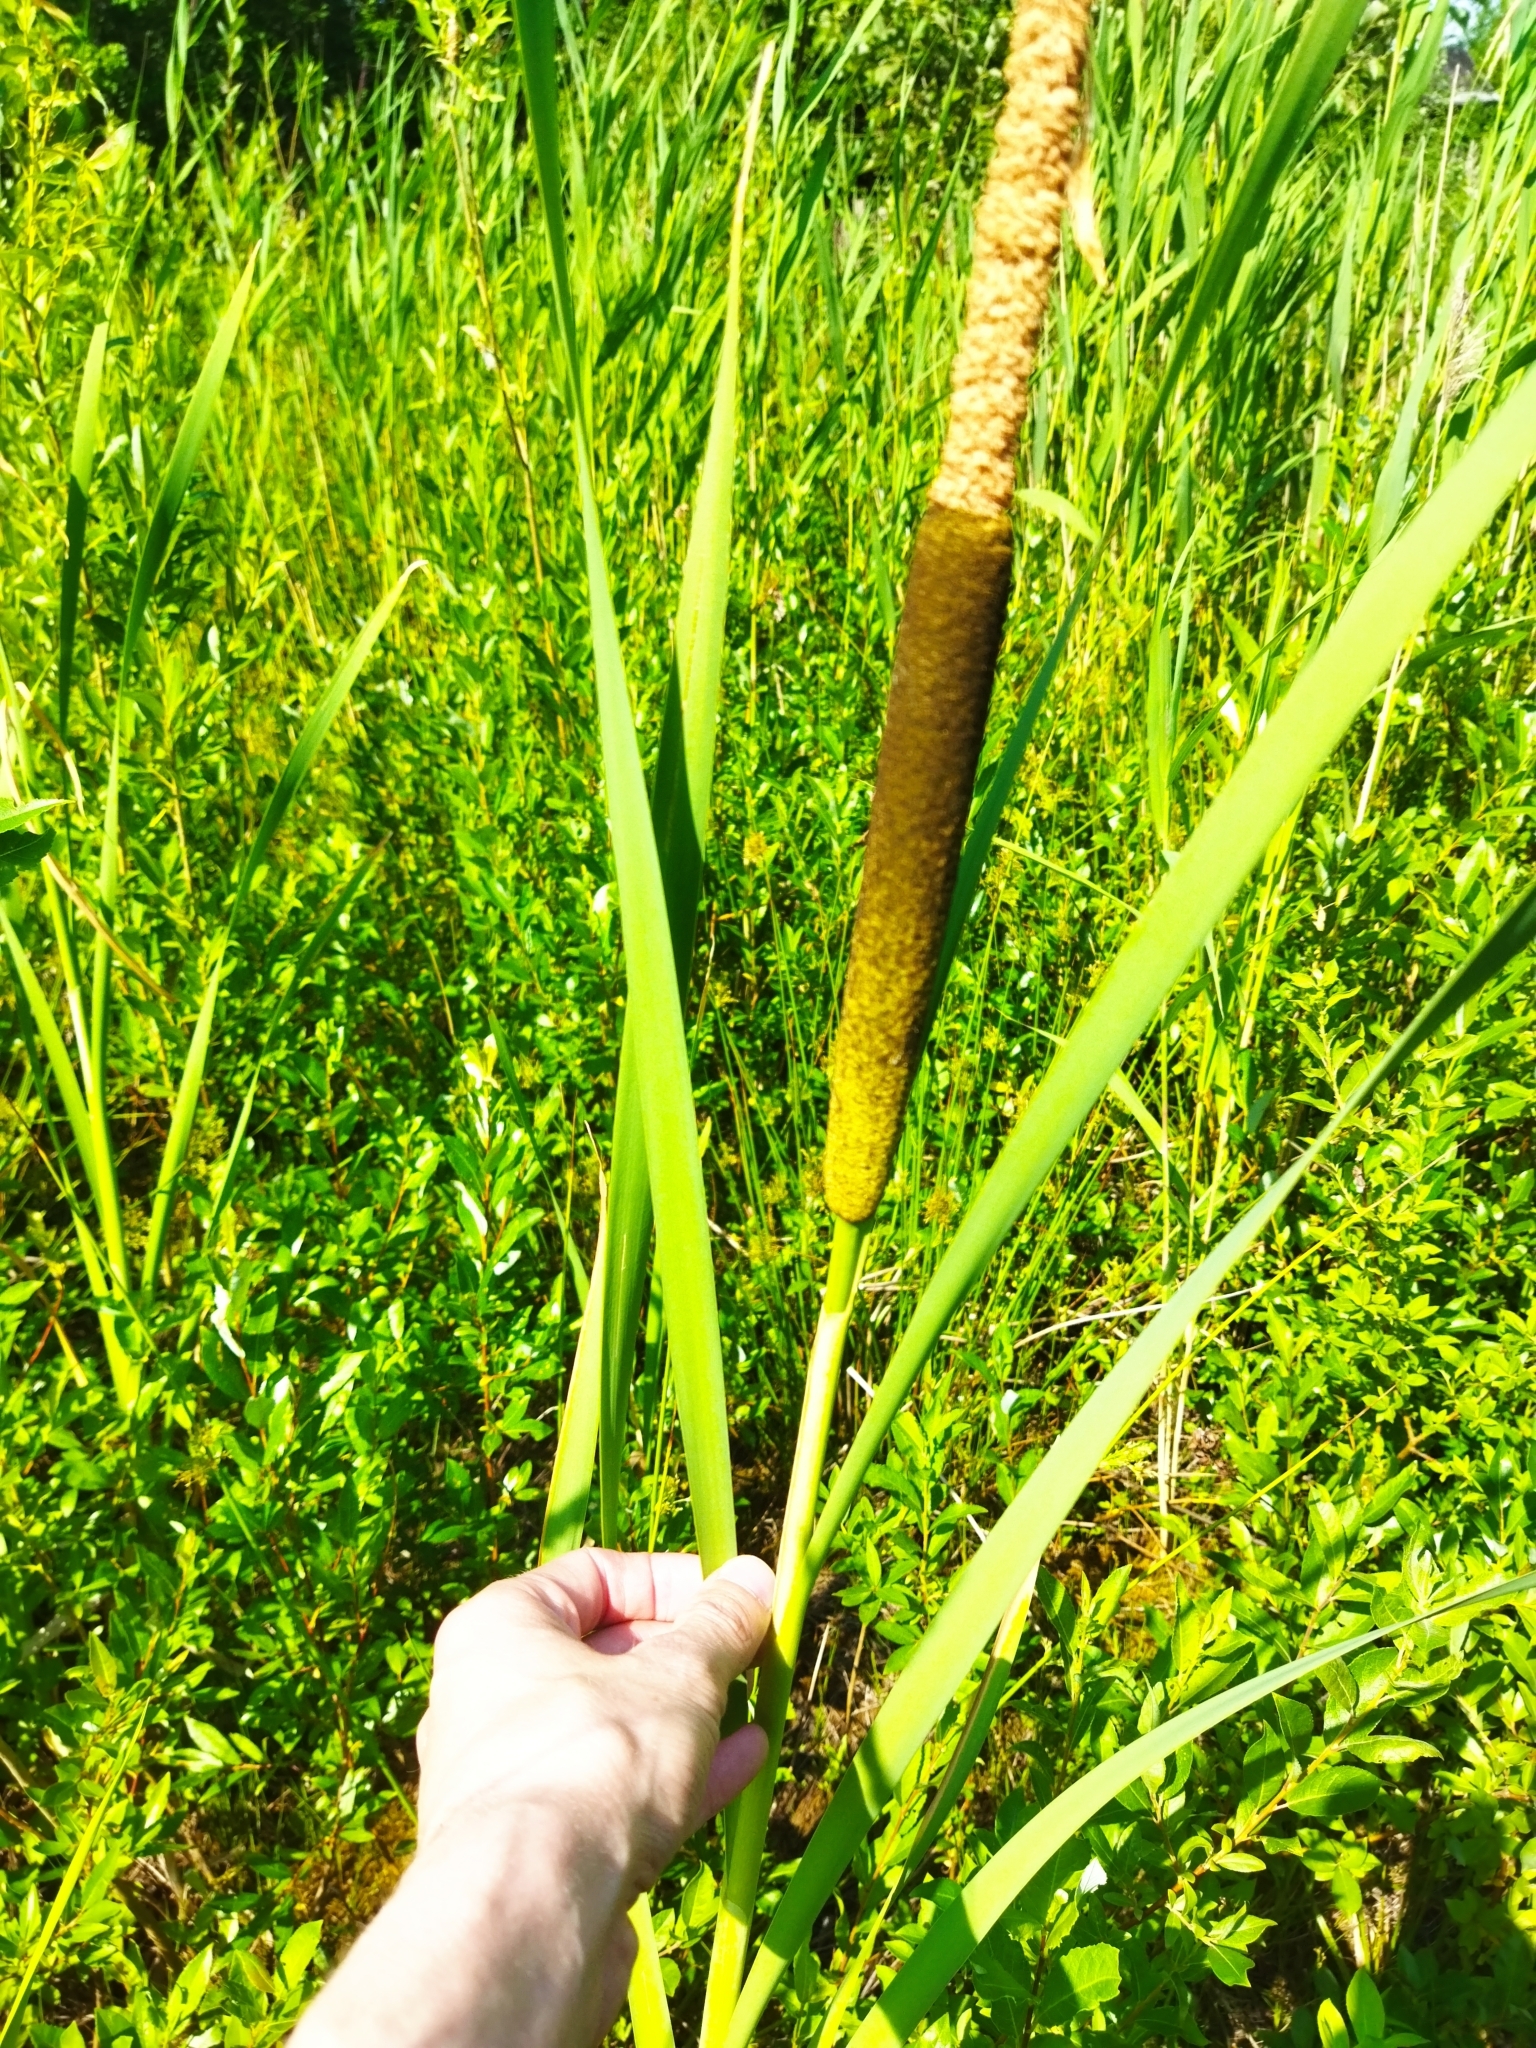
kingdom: Plantae
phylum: Tracheophyta
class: Liliopsida
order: Poales
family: Typhaceae
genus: Typha
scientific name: Typha latifolia
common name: Broadleaf cattail
